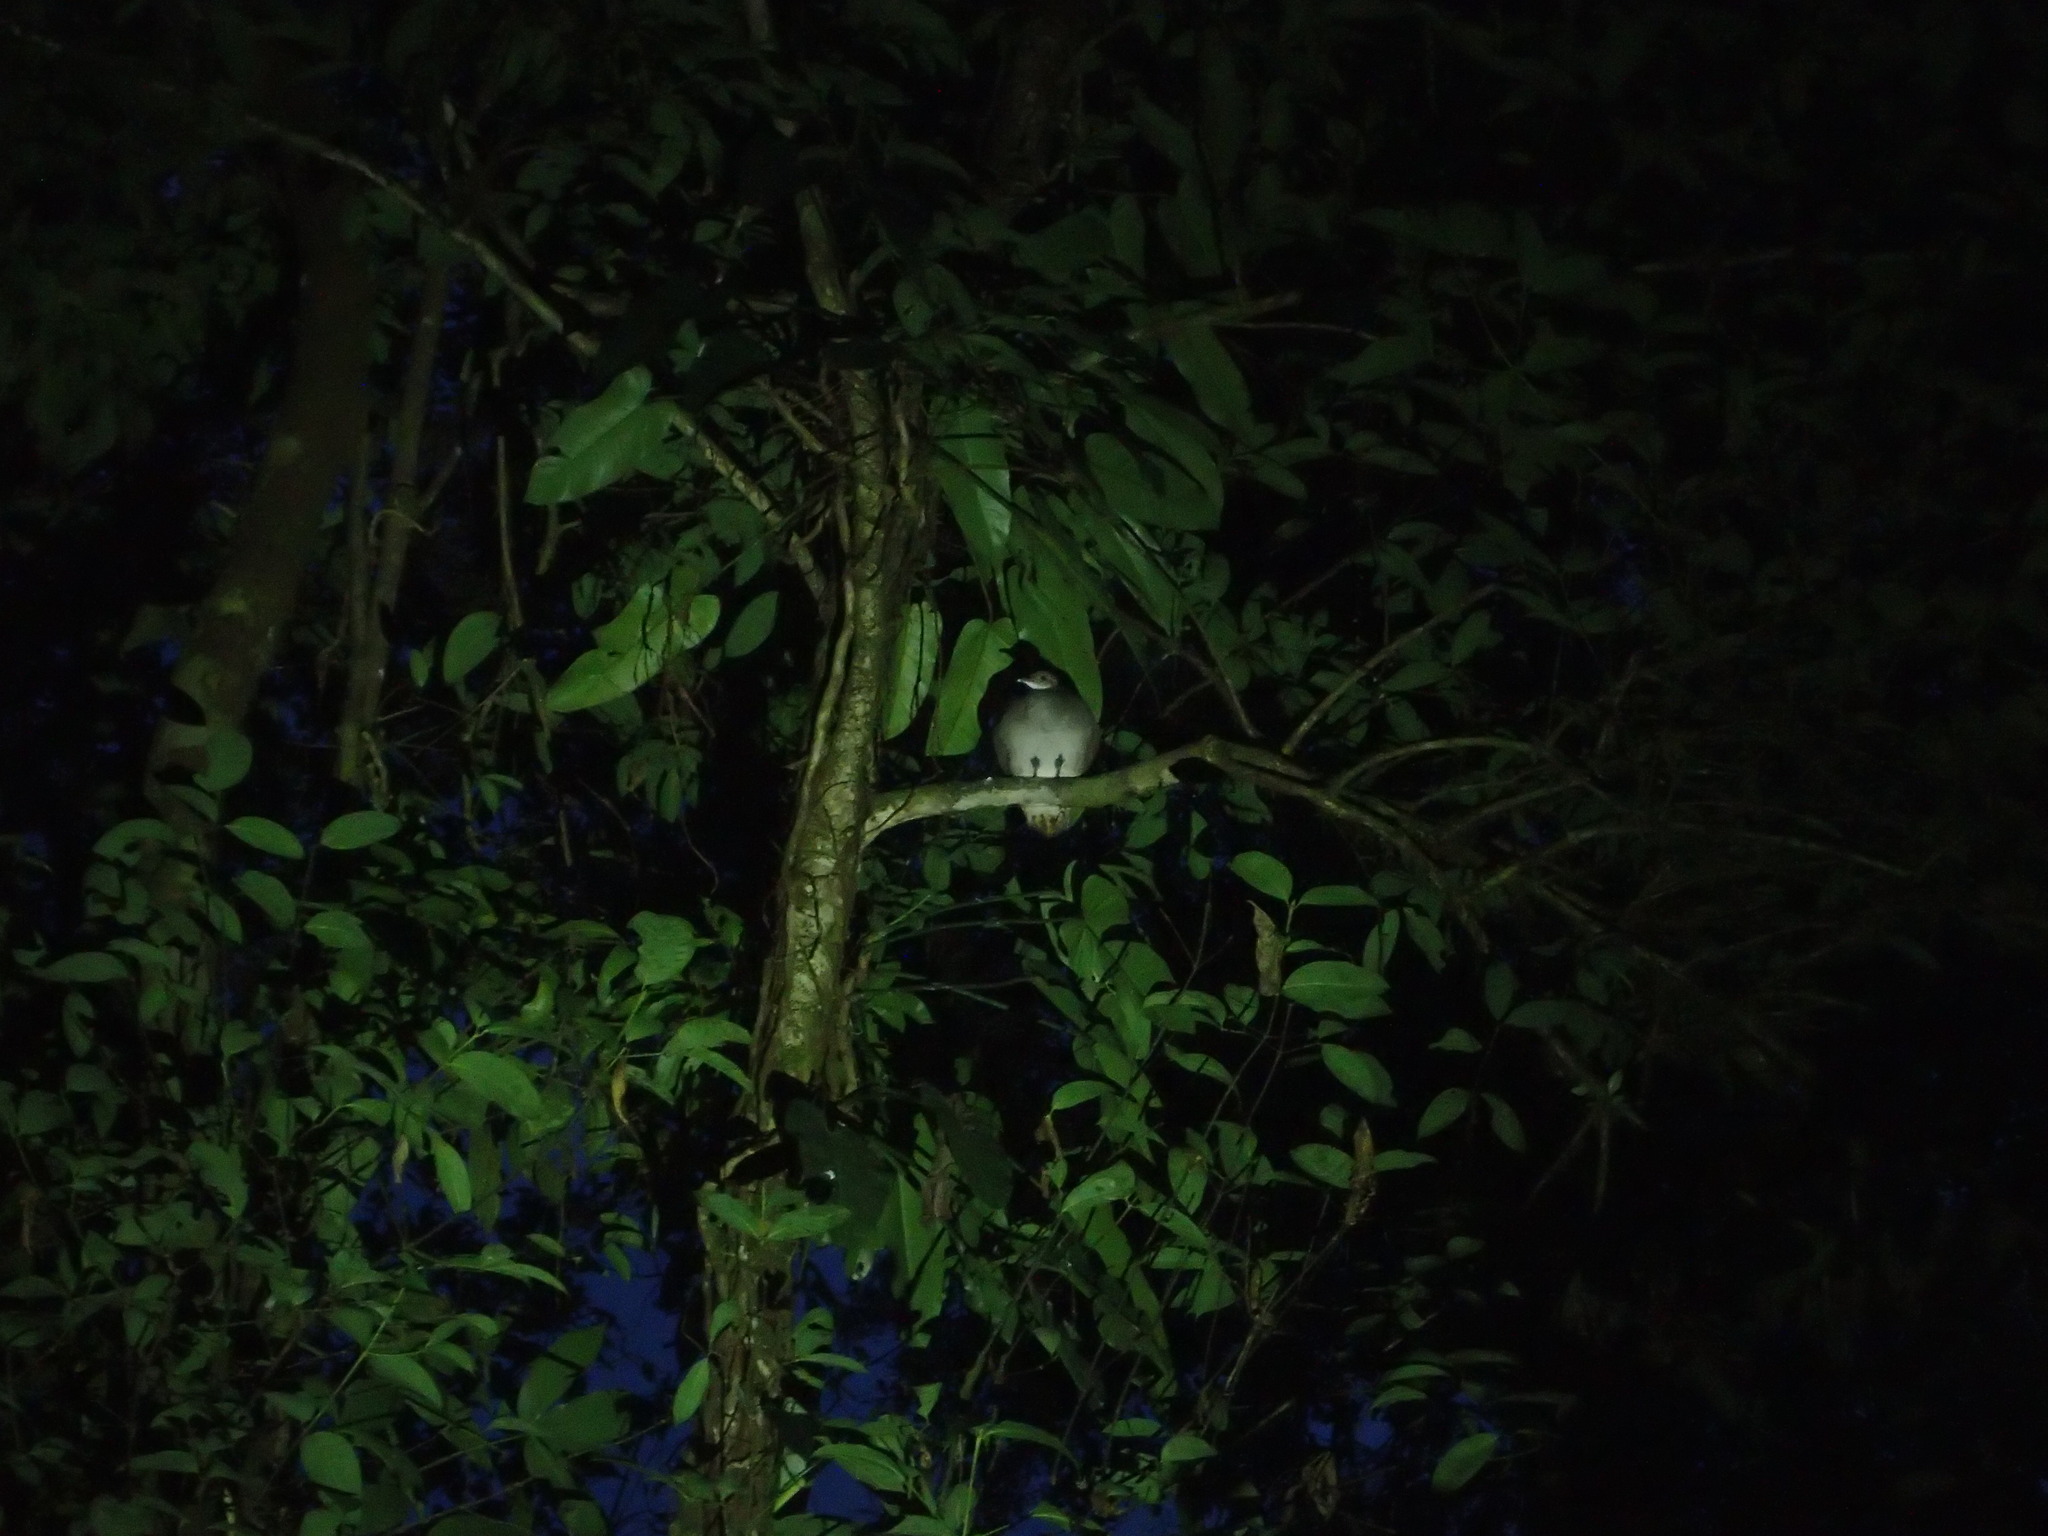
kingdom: Animalia
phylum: Chordata
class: Aves
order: Tinamiformes
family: Tinamidae
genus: Tinamus
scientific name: Tinamus major
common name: Great tinamou
